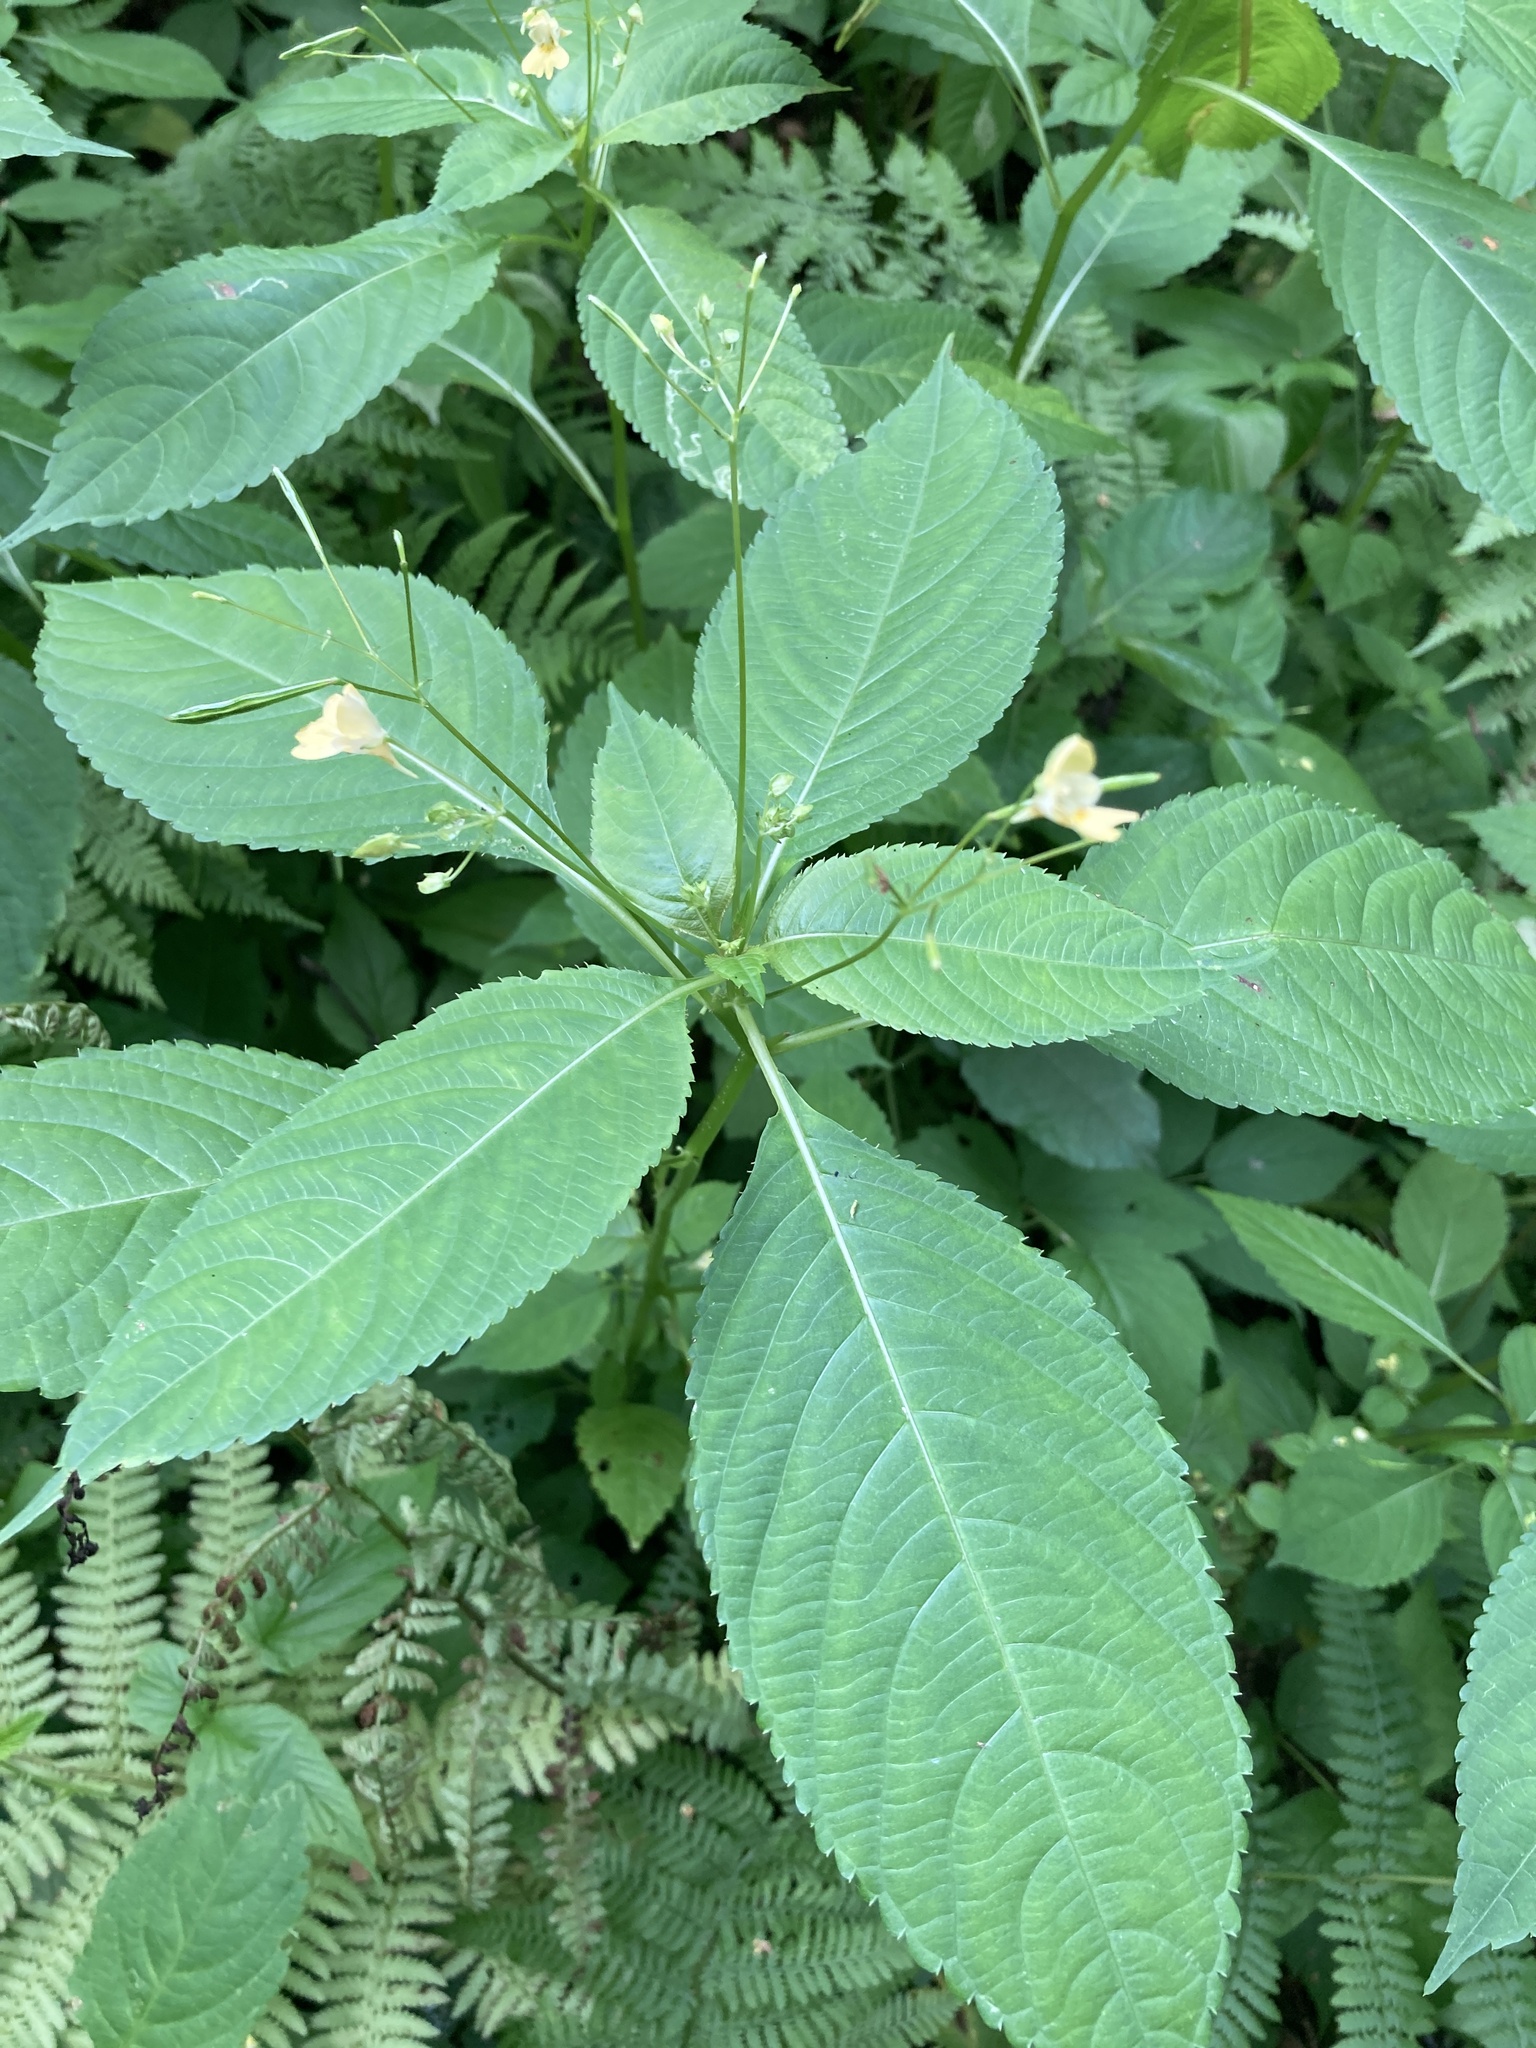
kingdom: Plantae
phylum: Tracheophyta
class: Magnoliopsida
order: Ericales
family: Balsaminaceae
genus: Impatiens
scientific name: Impatiens parviflora
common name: Small balsam
